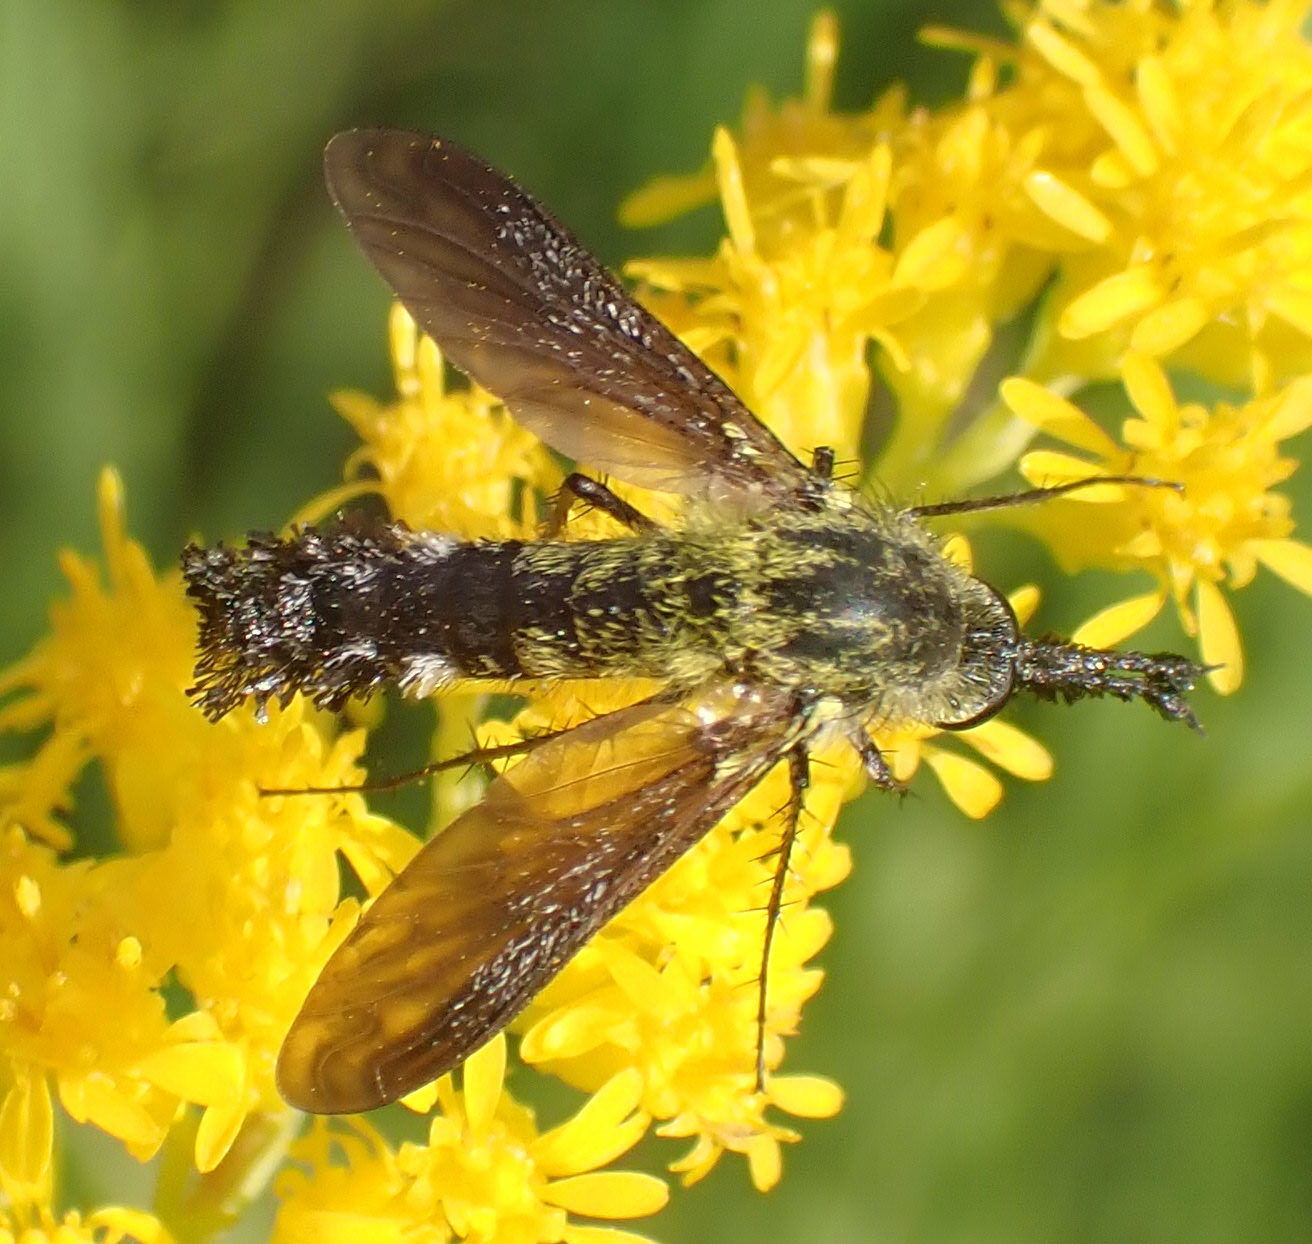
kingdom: Animalia
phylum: Arthropoda
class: Insecta
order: Diptera
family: Bombyliidae
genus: Lepidophora
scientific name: Lepidophora lutea
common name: Hunchback bee fly
